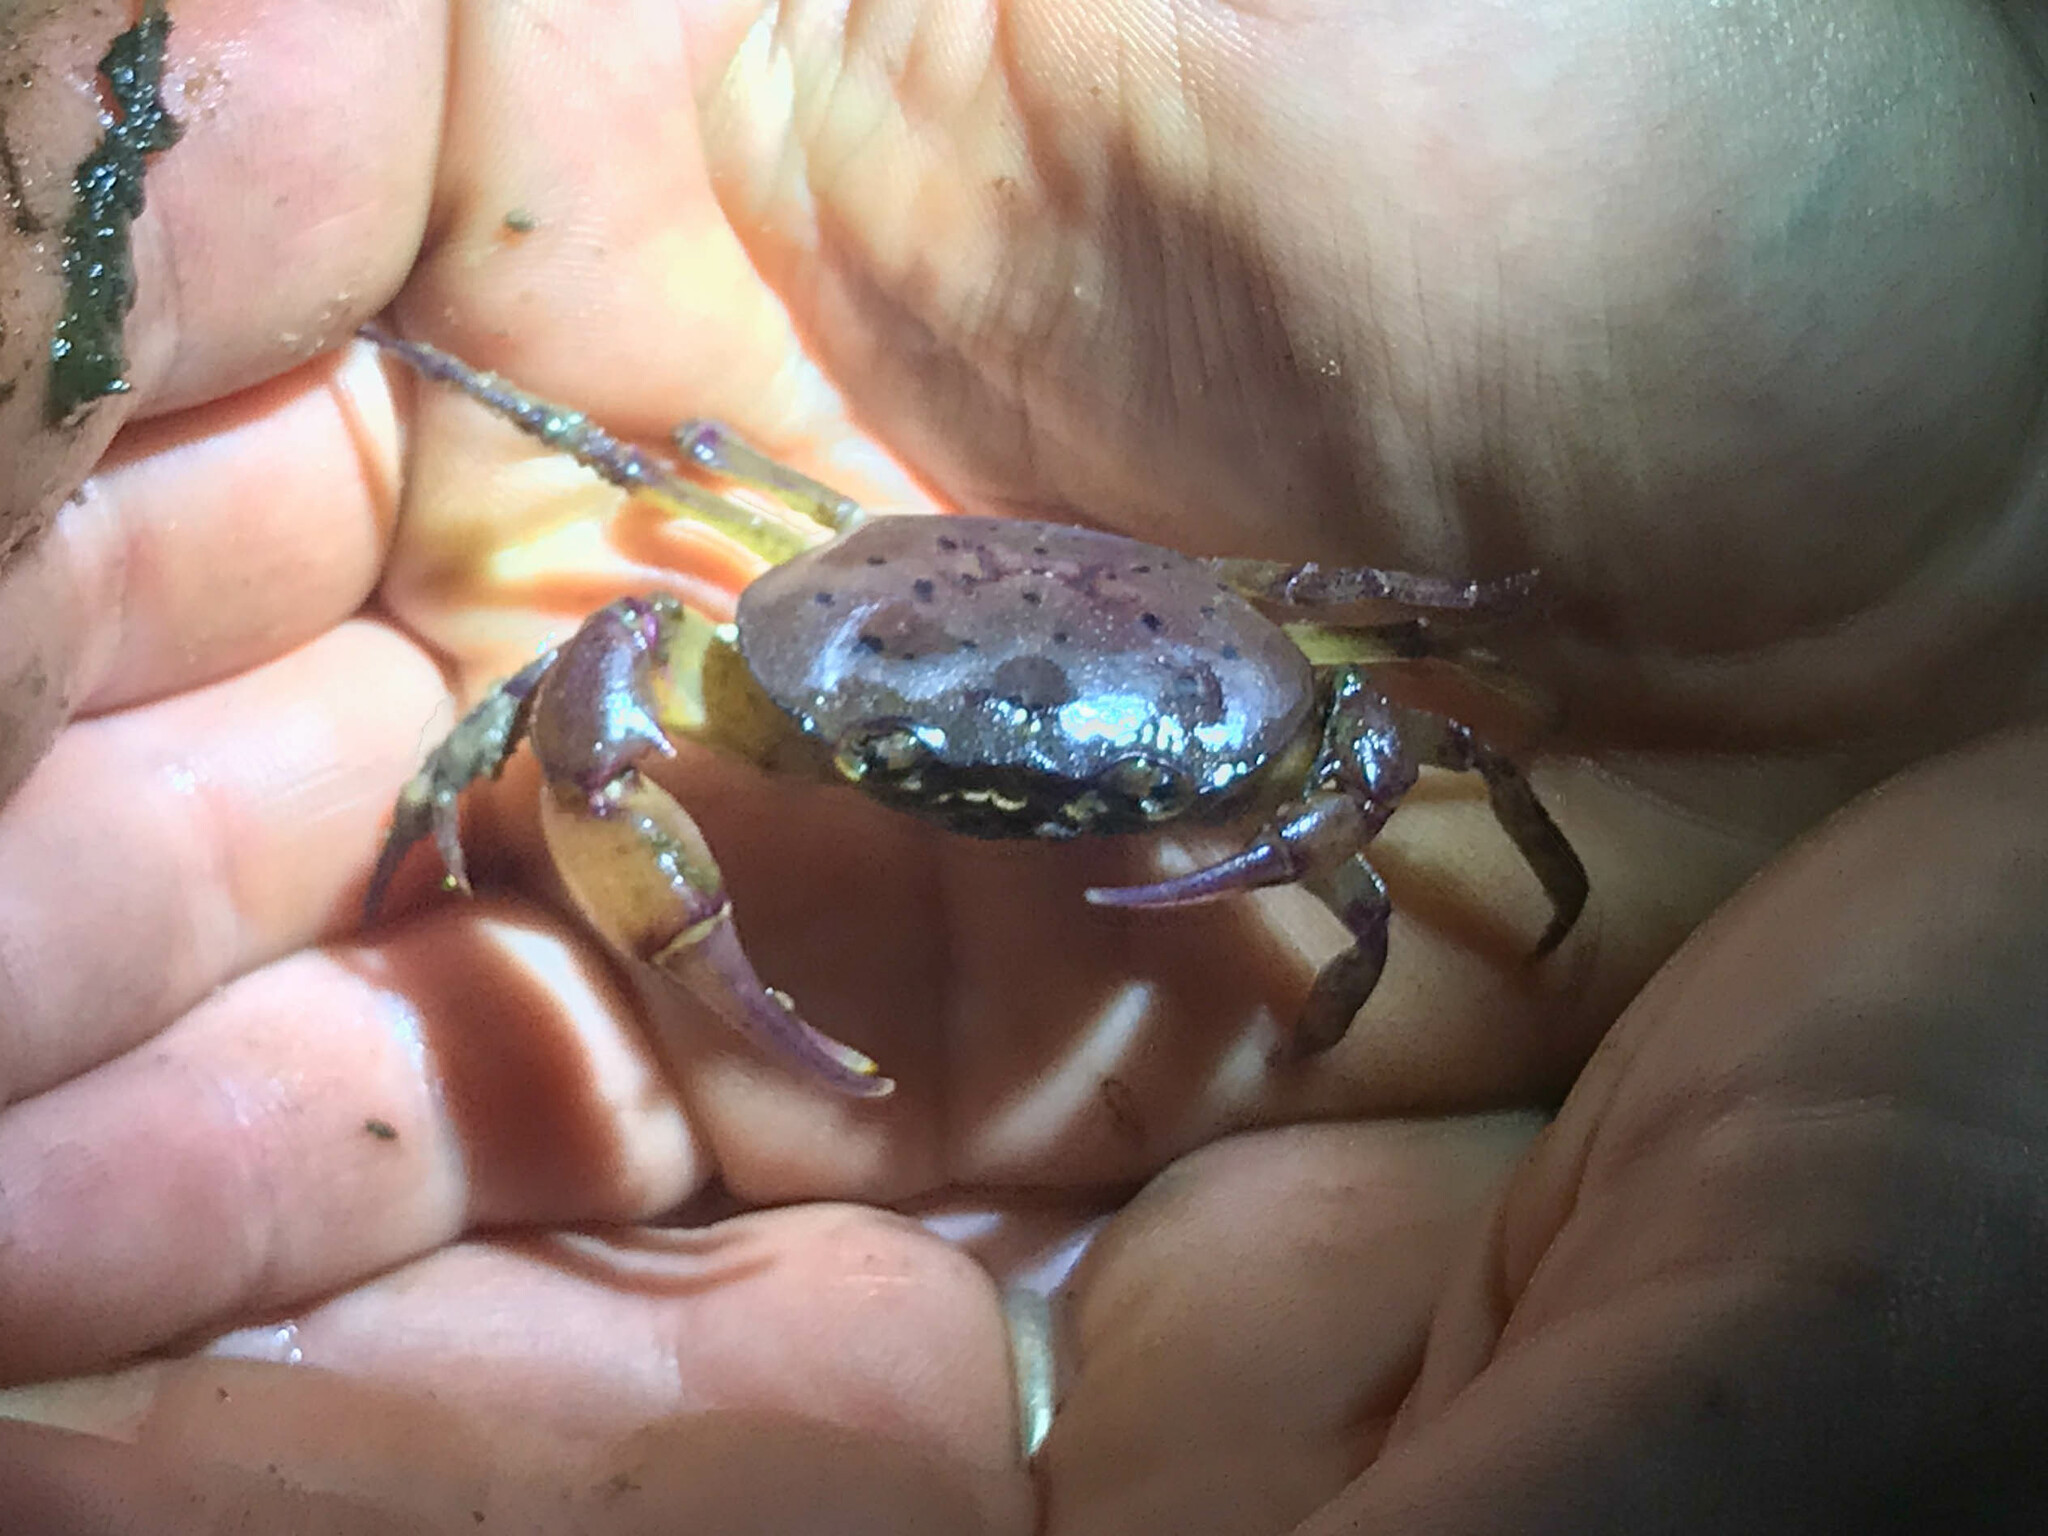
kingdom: Animalia
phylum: Arthropoda
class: Malacostraca
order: Decapoda
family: Gecarcinucidae
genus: Austrothelphusa
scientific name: Austrothelphusa transversa
